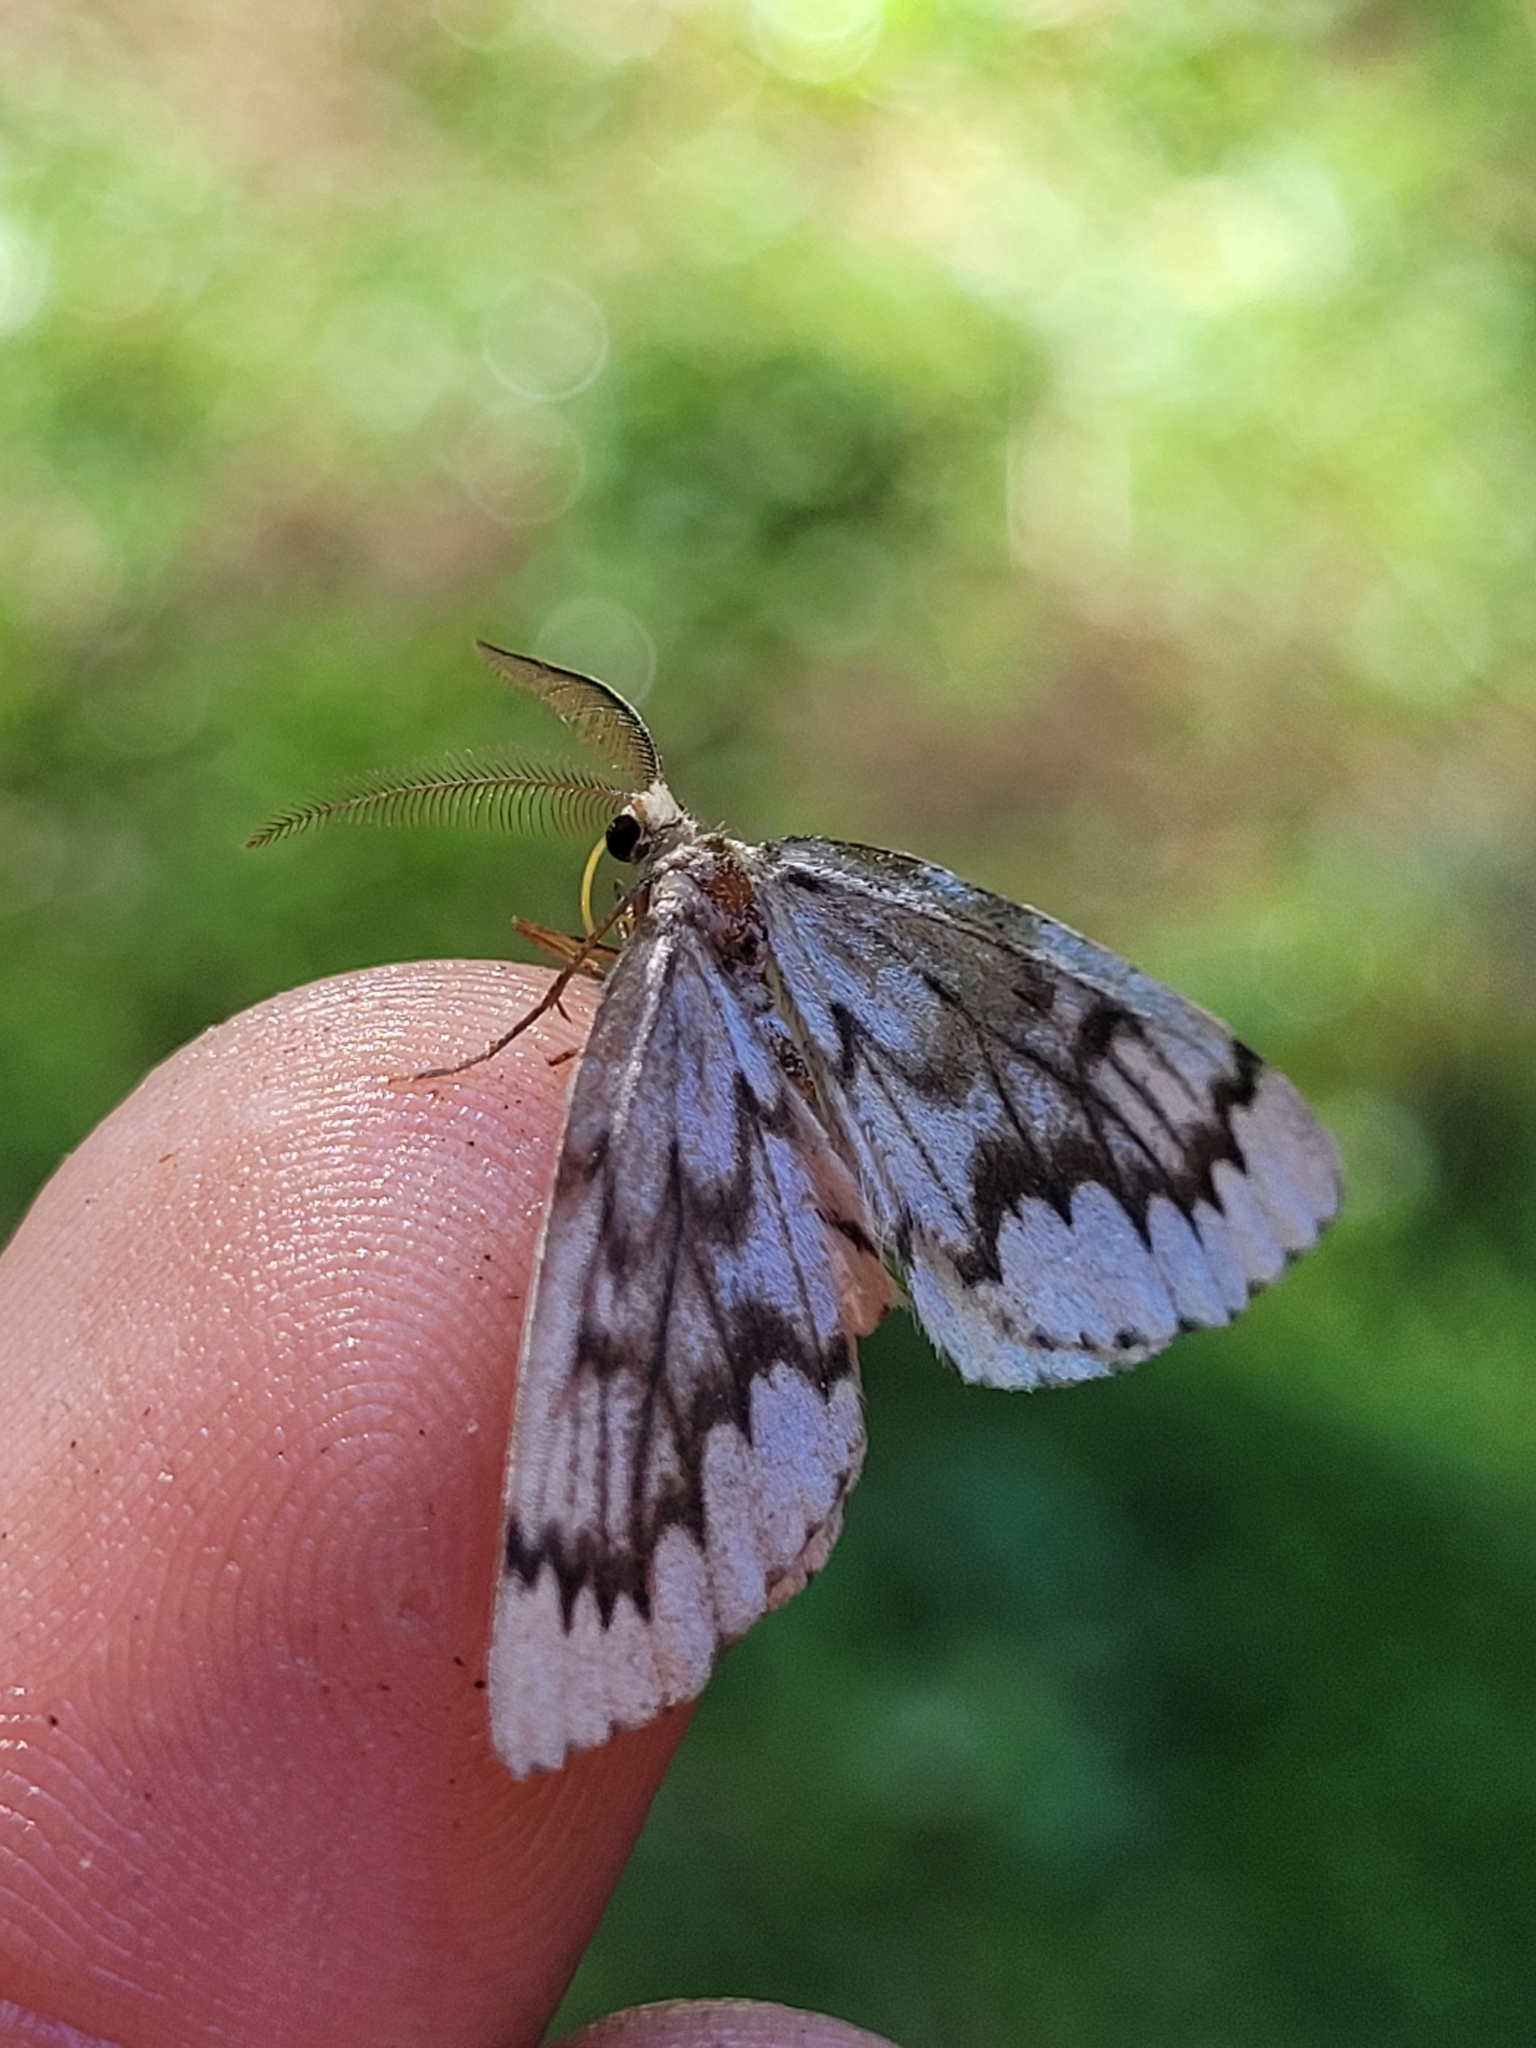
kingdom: Animalia
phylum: Arthropoda
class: Insecta
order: Lepidoptera
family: Geometridae
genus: Nepytia
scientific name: Nepytia phantasmaria
